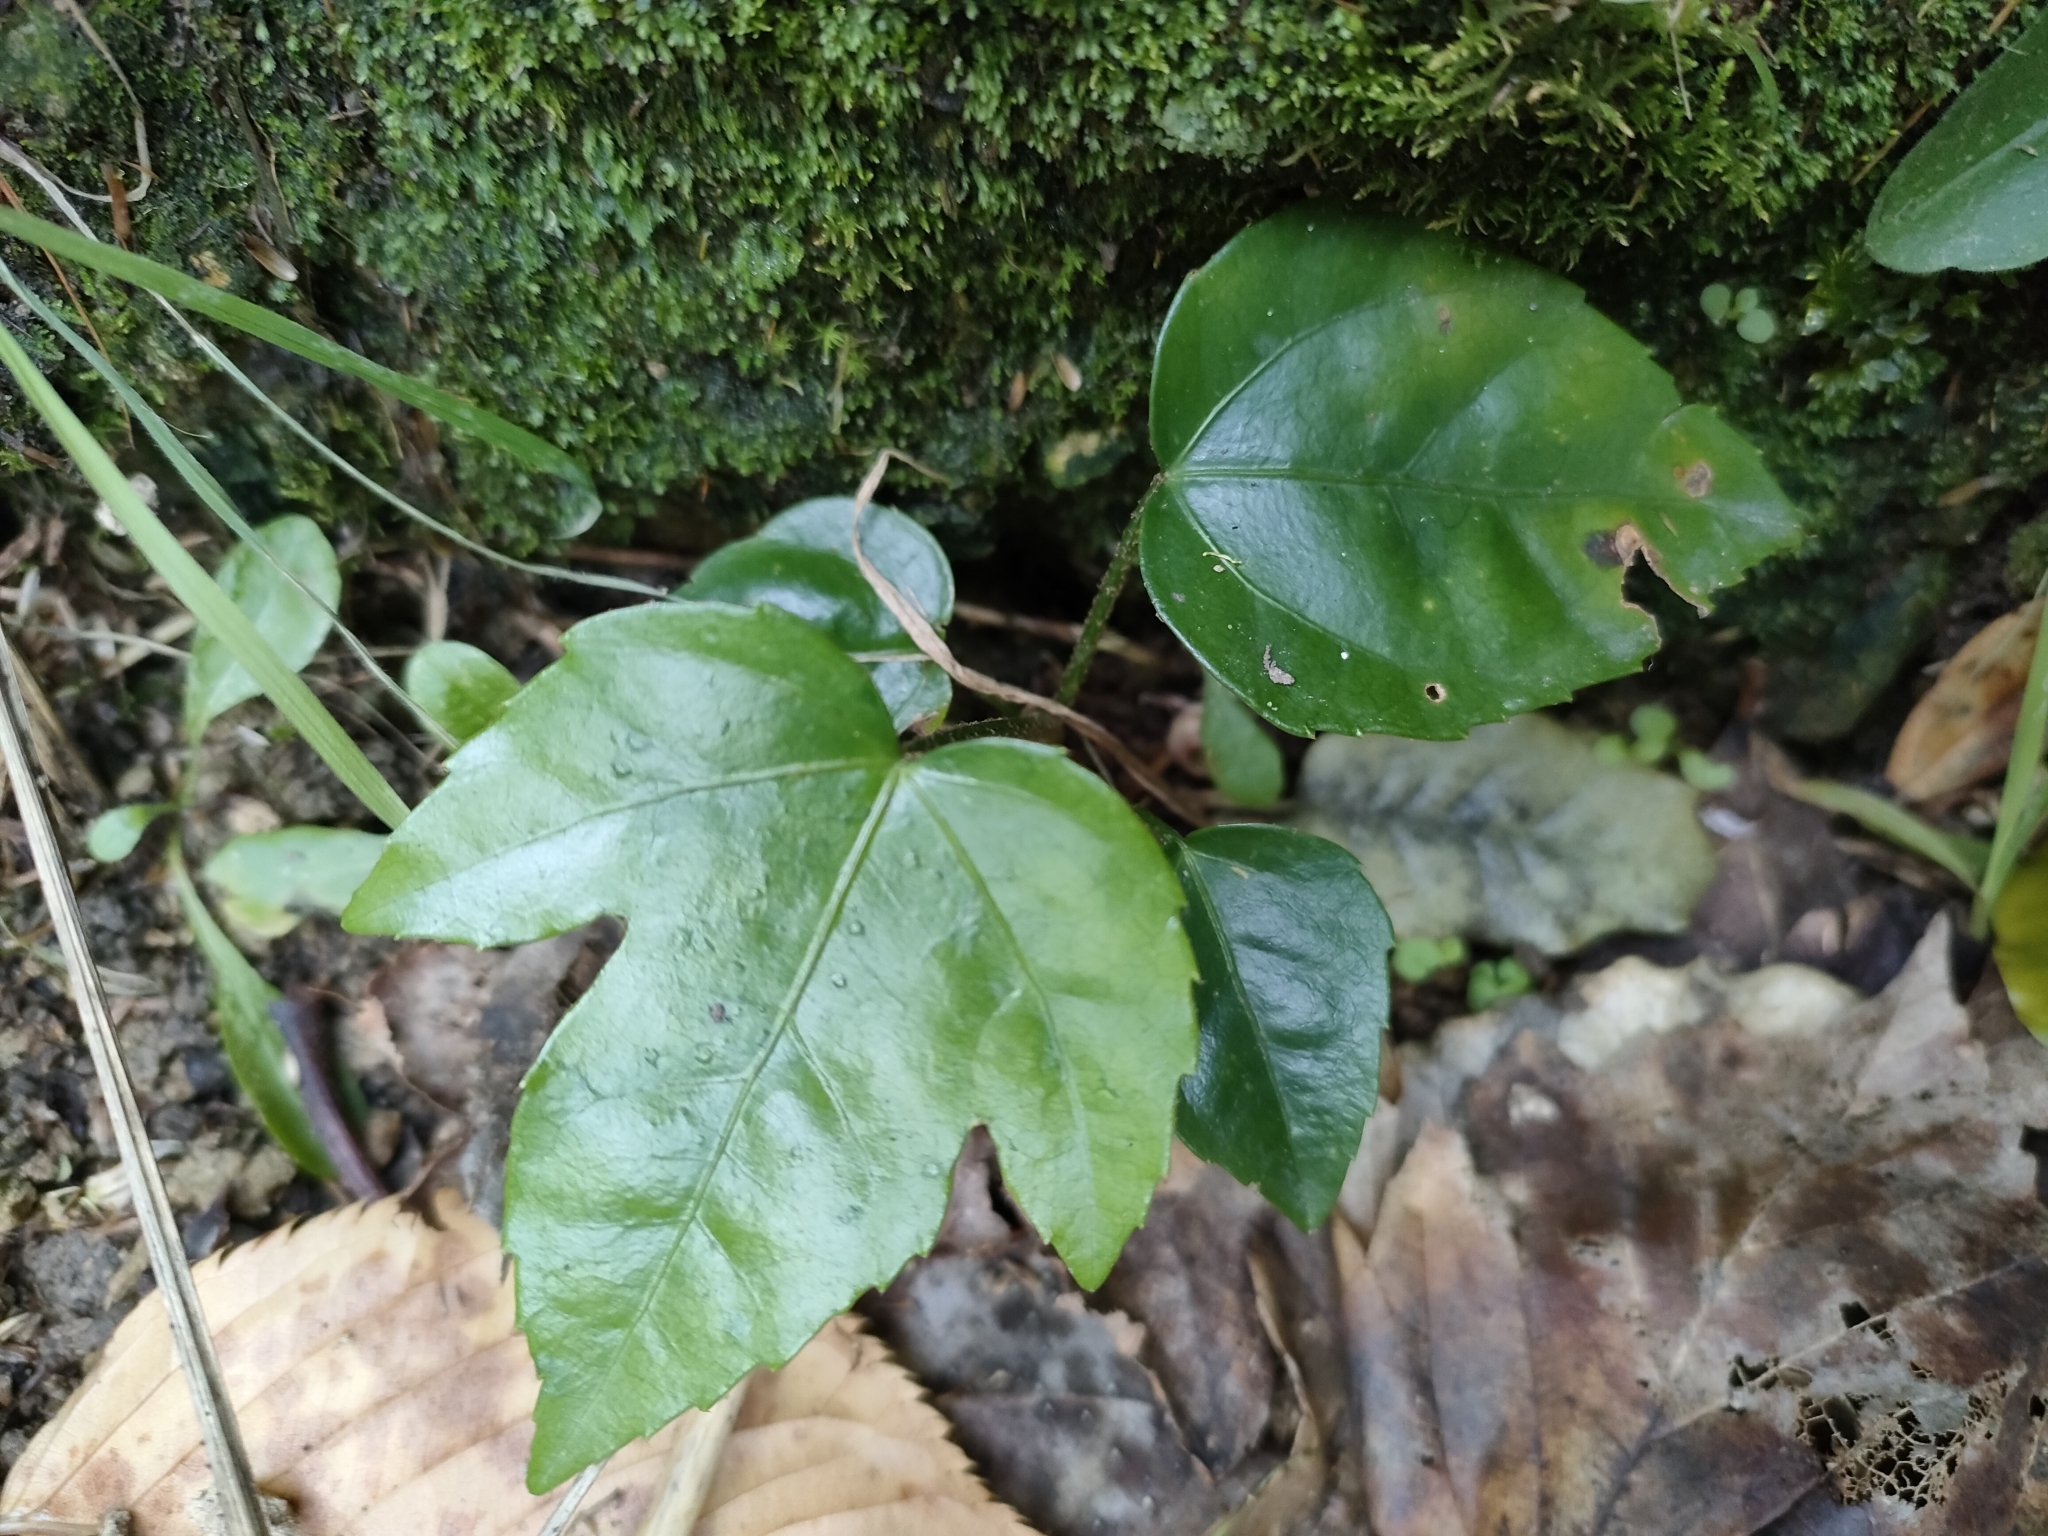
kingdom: Plantae
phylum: Tracheophyta
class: Magnoliopsida
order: Apiales
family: Araliaceae
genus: Fatsia
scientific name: Fatsia japonica
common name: Fatsia
